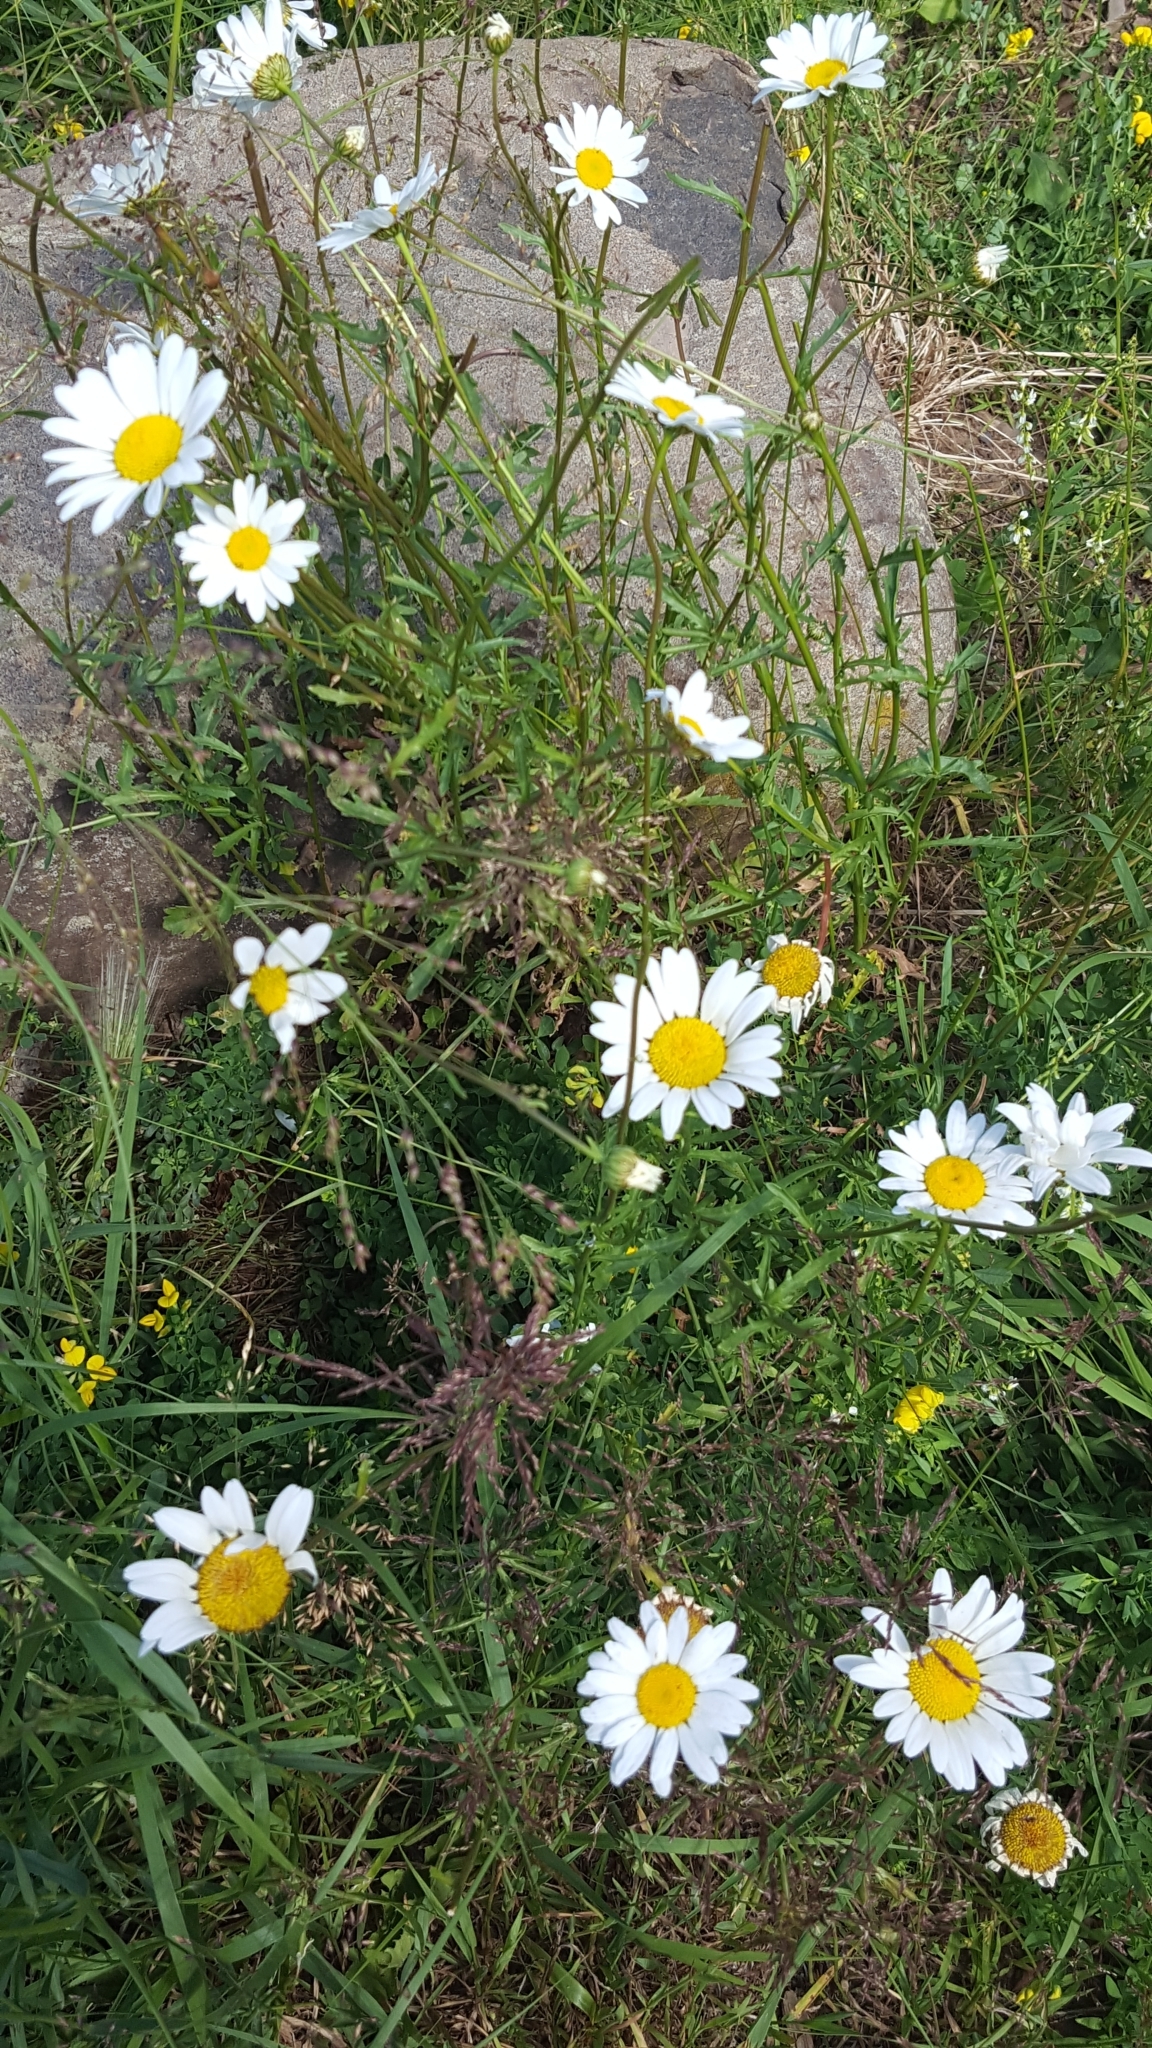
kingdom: Plantae
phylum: Tracheophyta
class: Magnoliopsida
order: Asterales
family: Asteraceae
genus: Leucanthemum
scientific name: Leucanthemum vulgare
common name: Oxeye daisy
